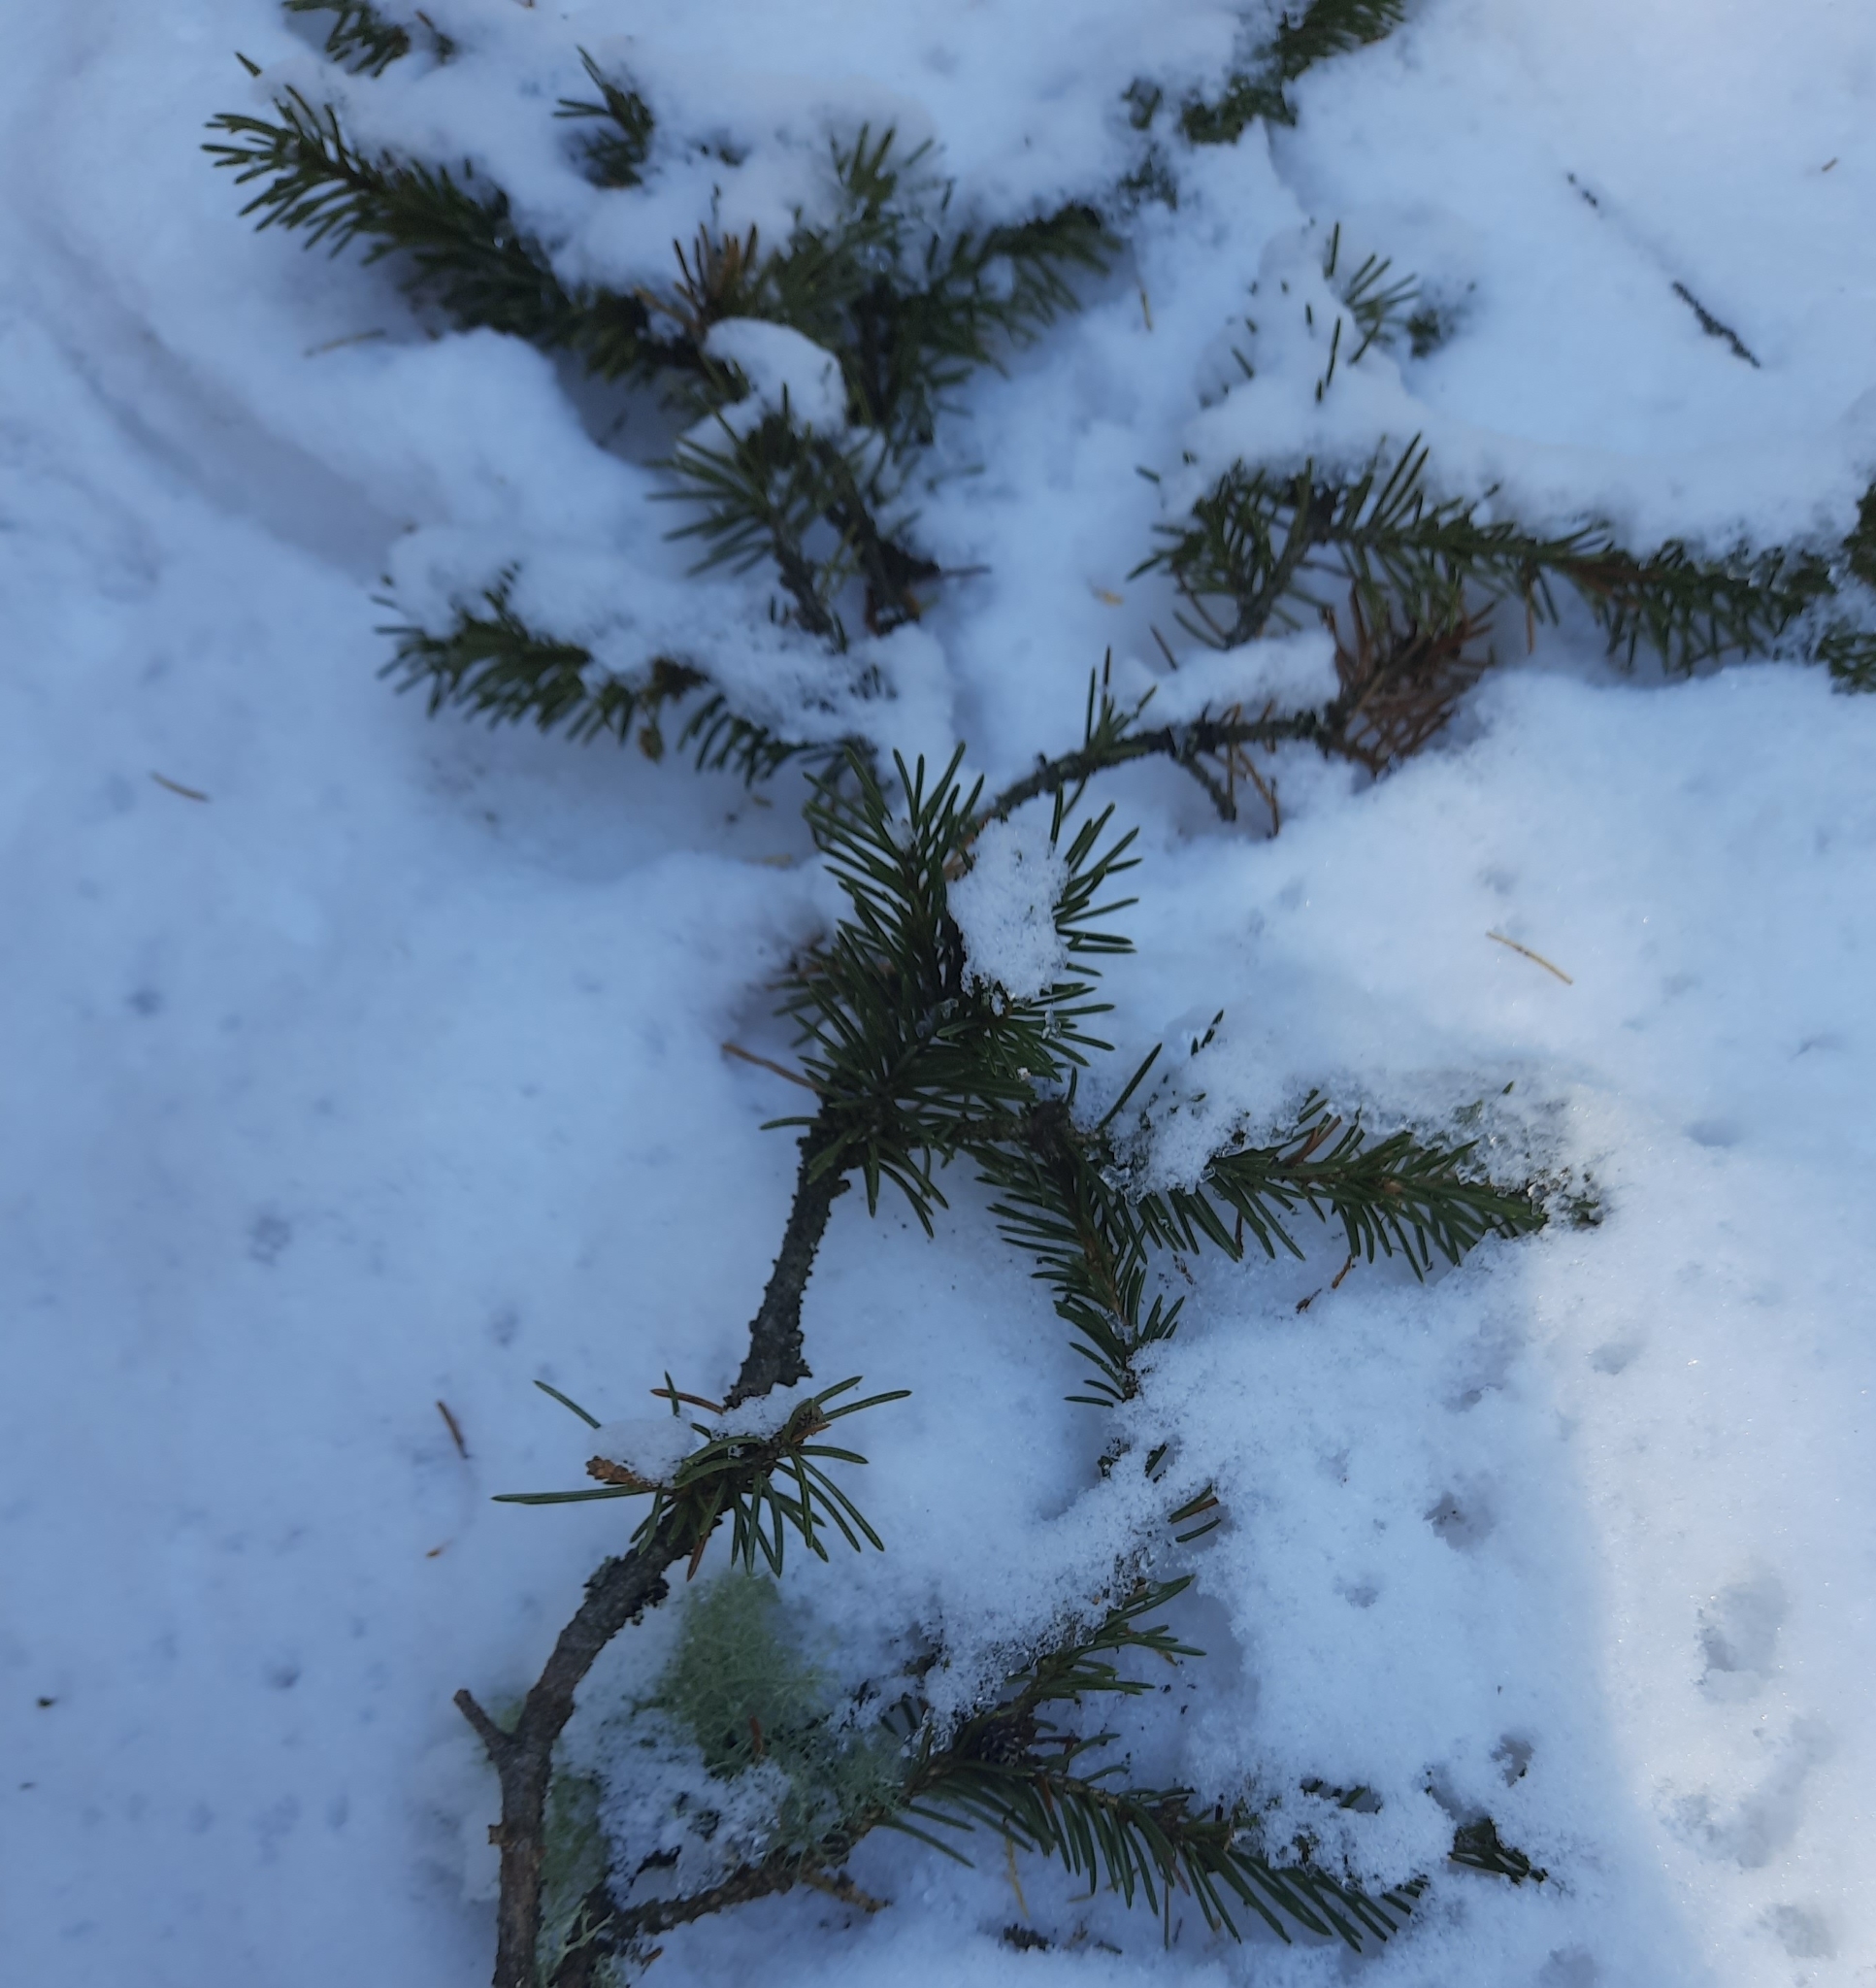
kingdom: Plantae
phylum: Tracheophyta
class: Pinopsida
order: Pinales
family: Pinaceae
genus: Abies
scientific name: Abies sibirica
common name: Siberian fir
